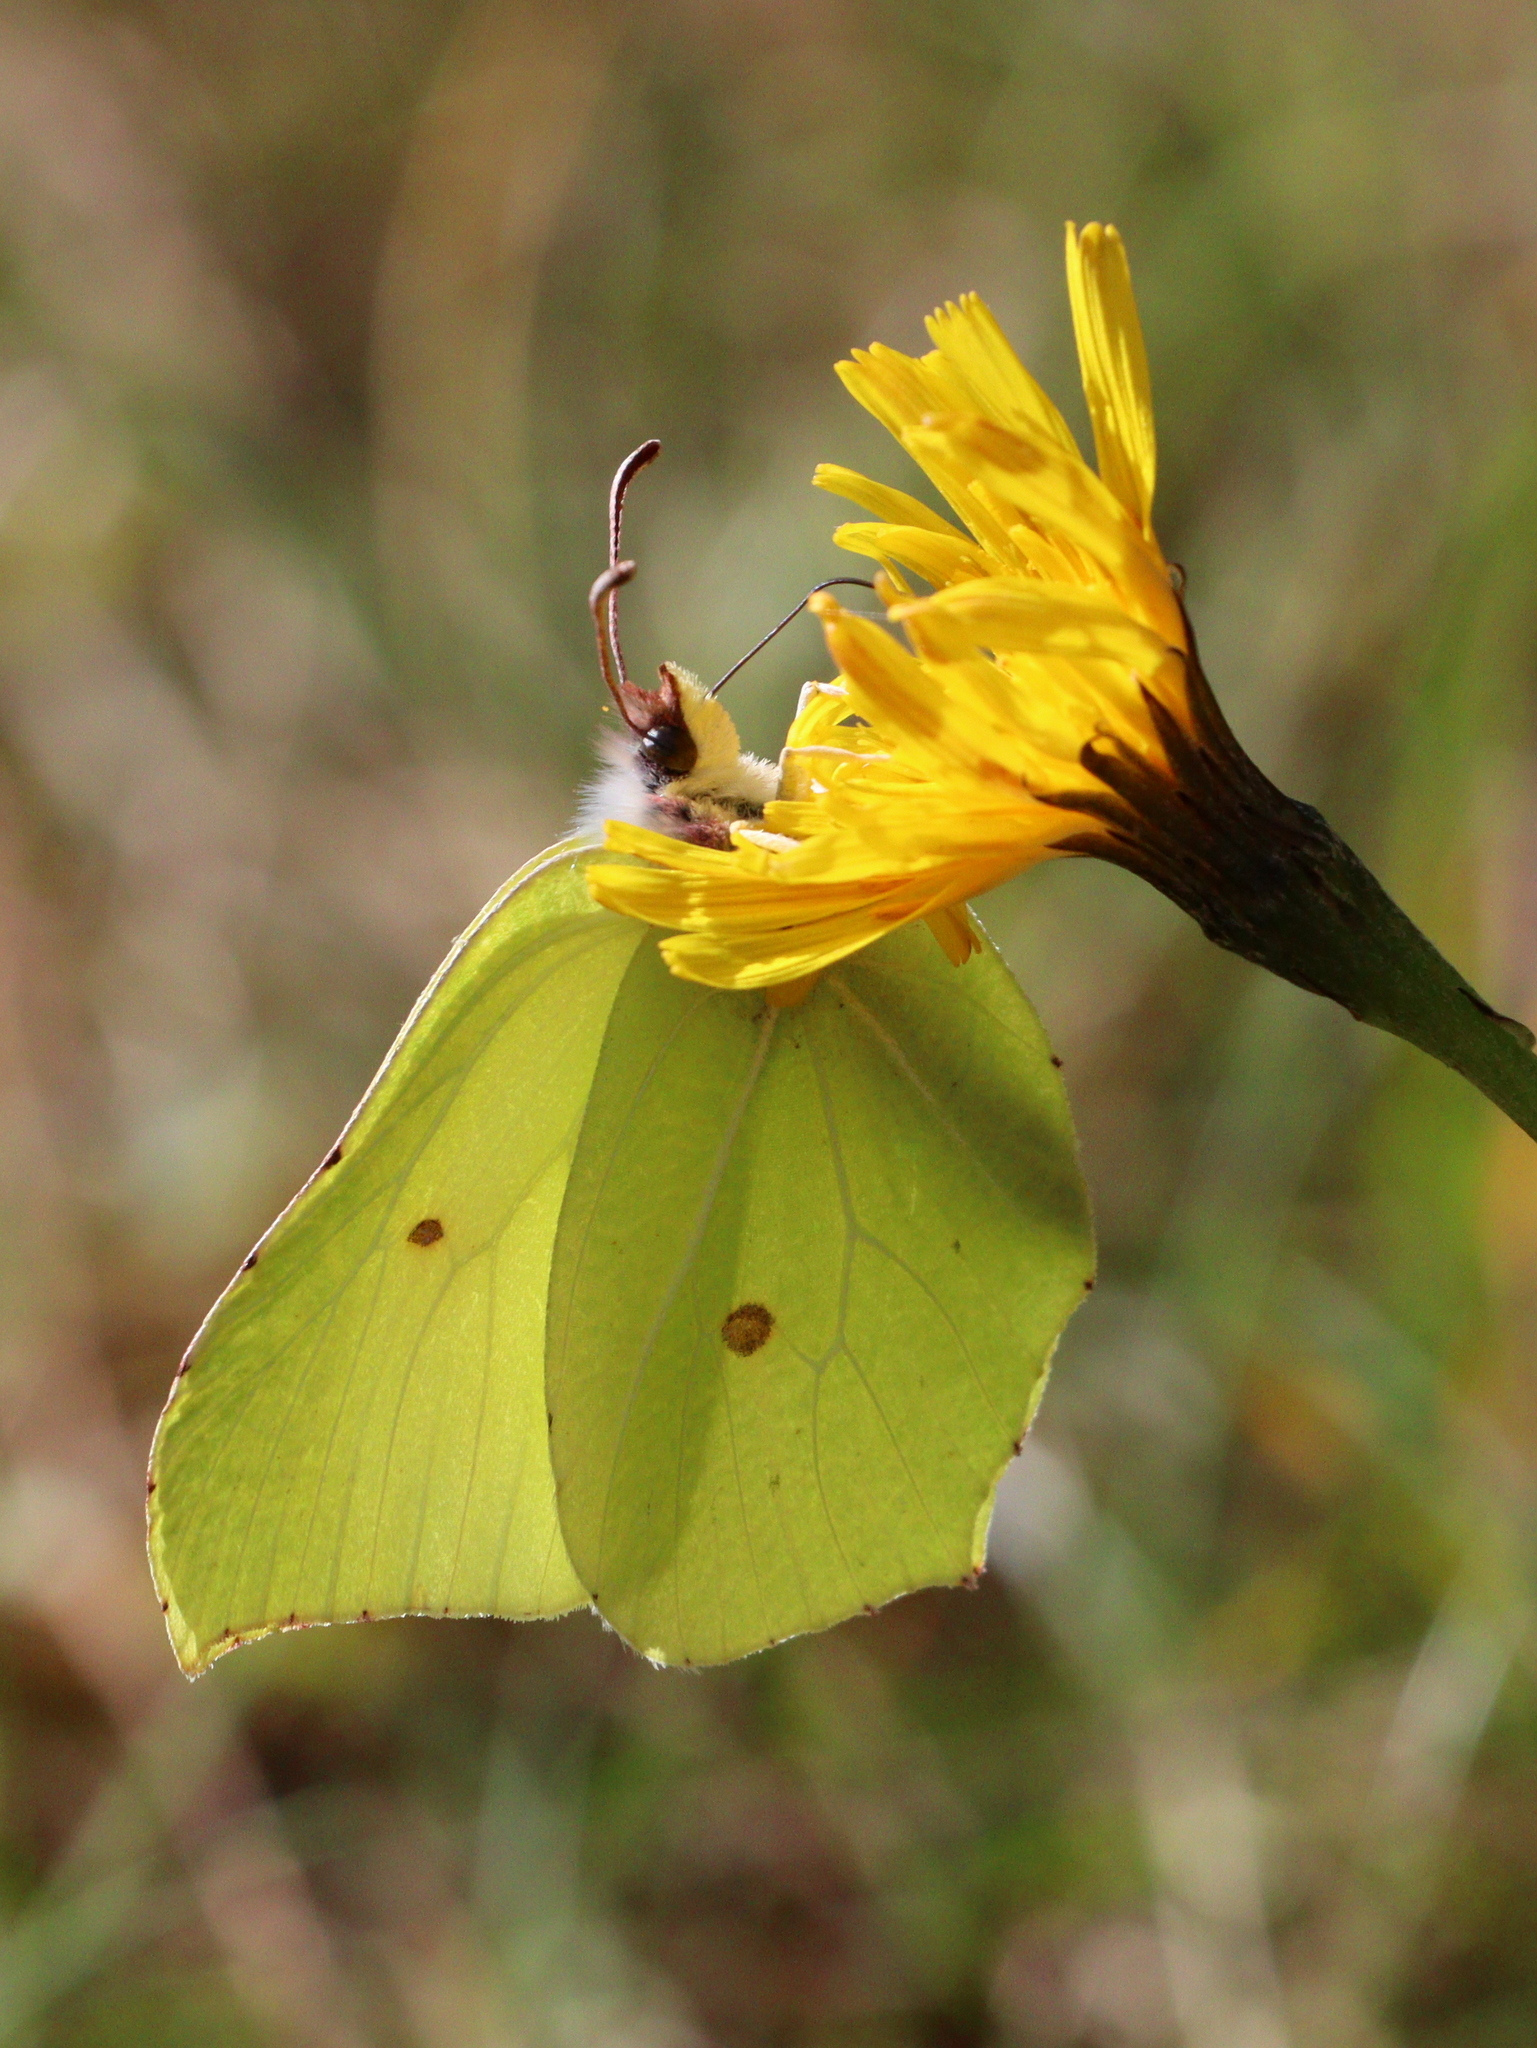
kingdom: Animalia
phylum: Arthropoda
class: Insecta
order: Lepidoptera
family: Pieridae
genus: Gonepteryx
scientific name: Gonepteryx rhamni
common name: Brimstone
